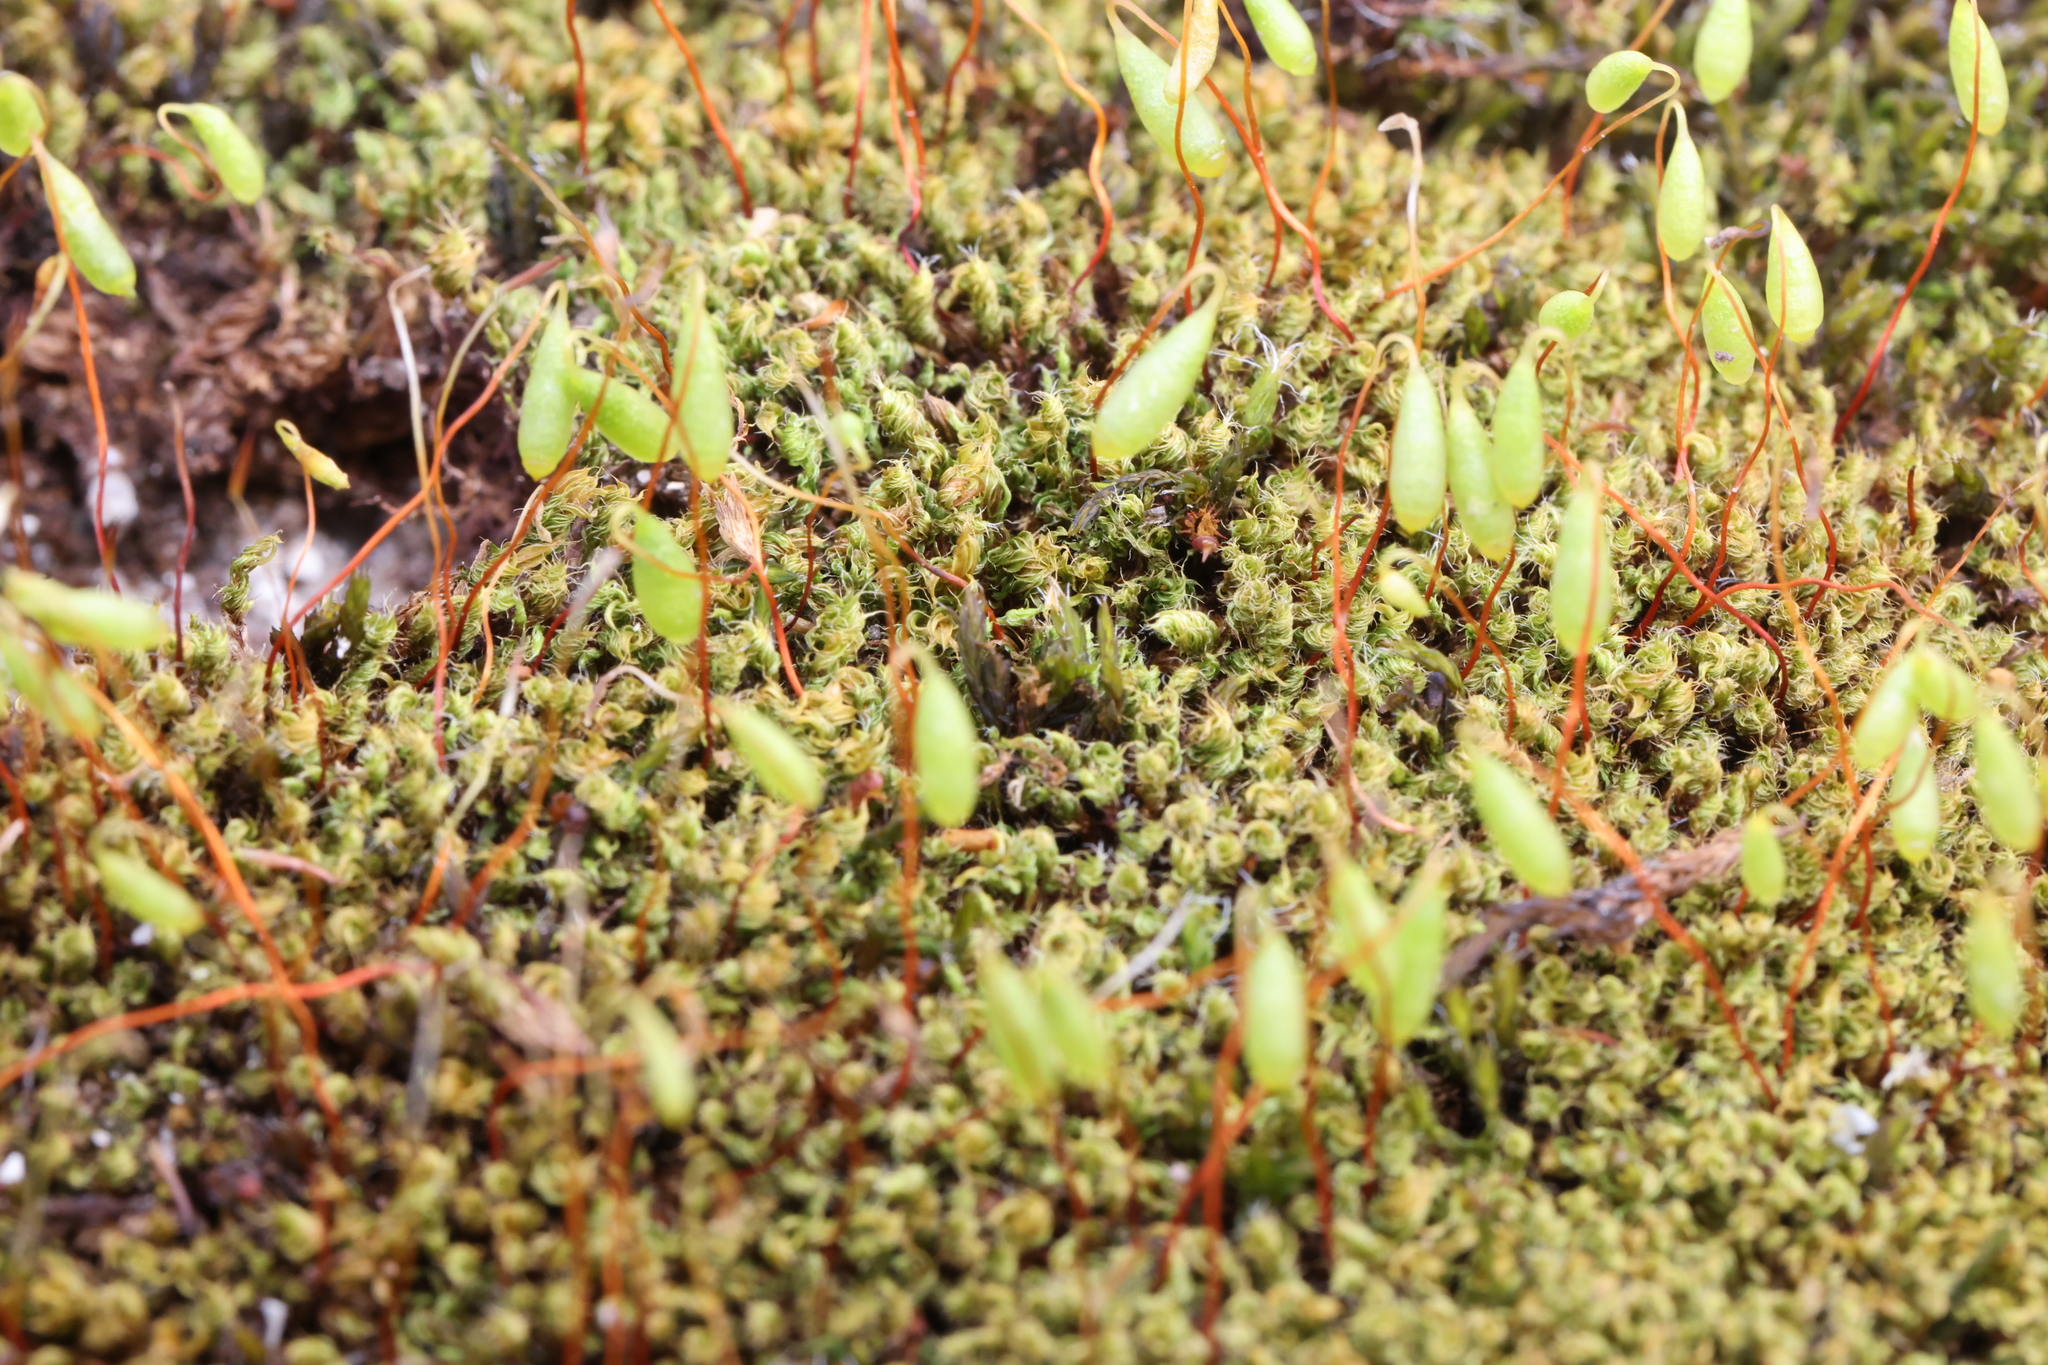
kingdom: Plantae
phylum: Bryophyta
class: Bryopsida
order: Bryales
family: Bryaceae
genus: Rosulabryum
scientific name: Rosulabryum capillare
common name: Capillary thread-moss
